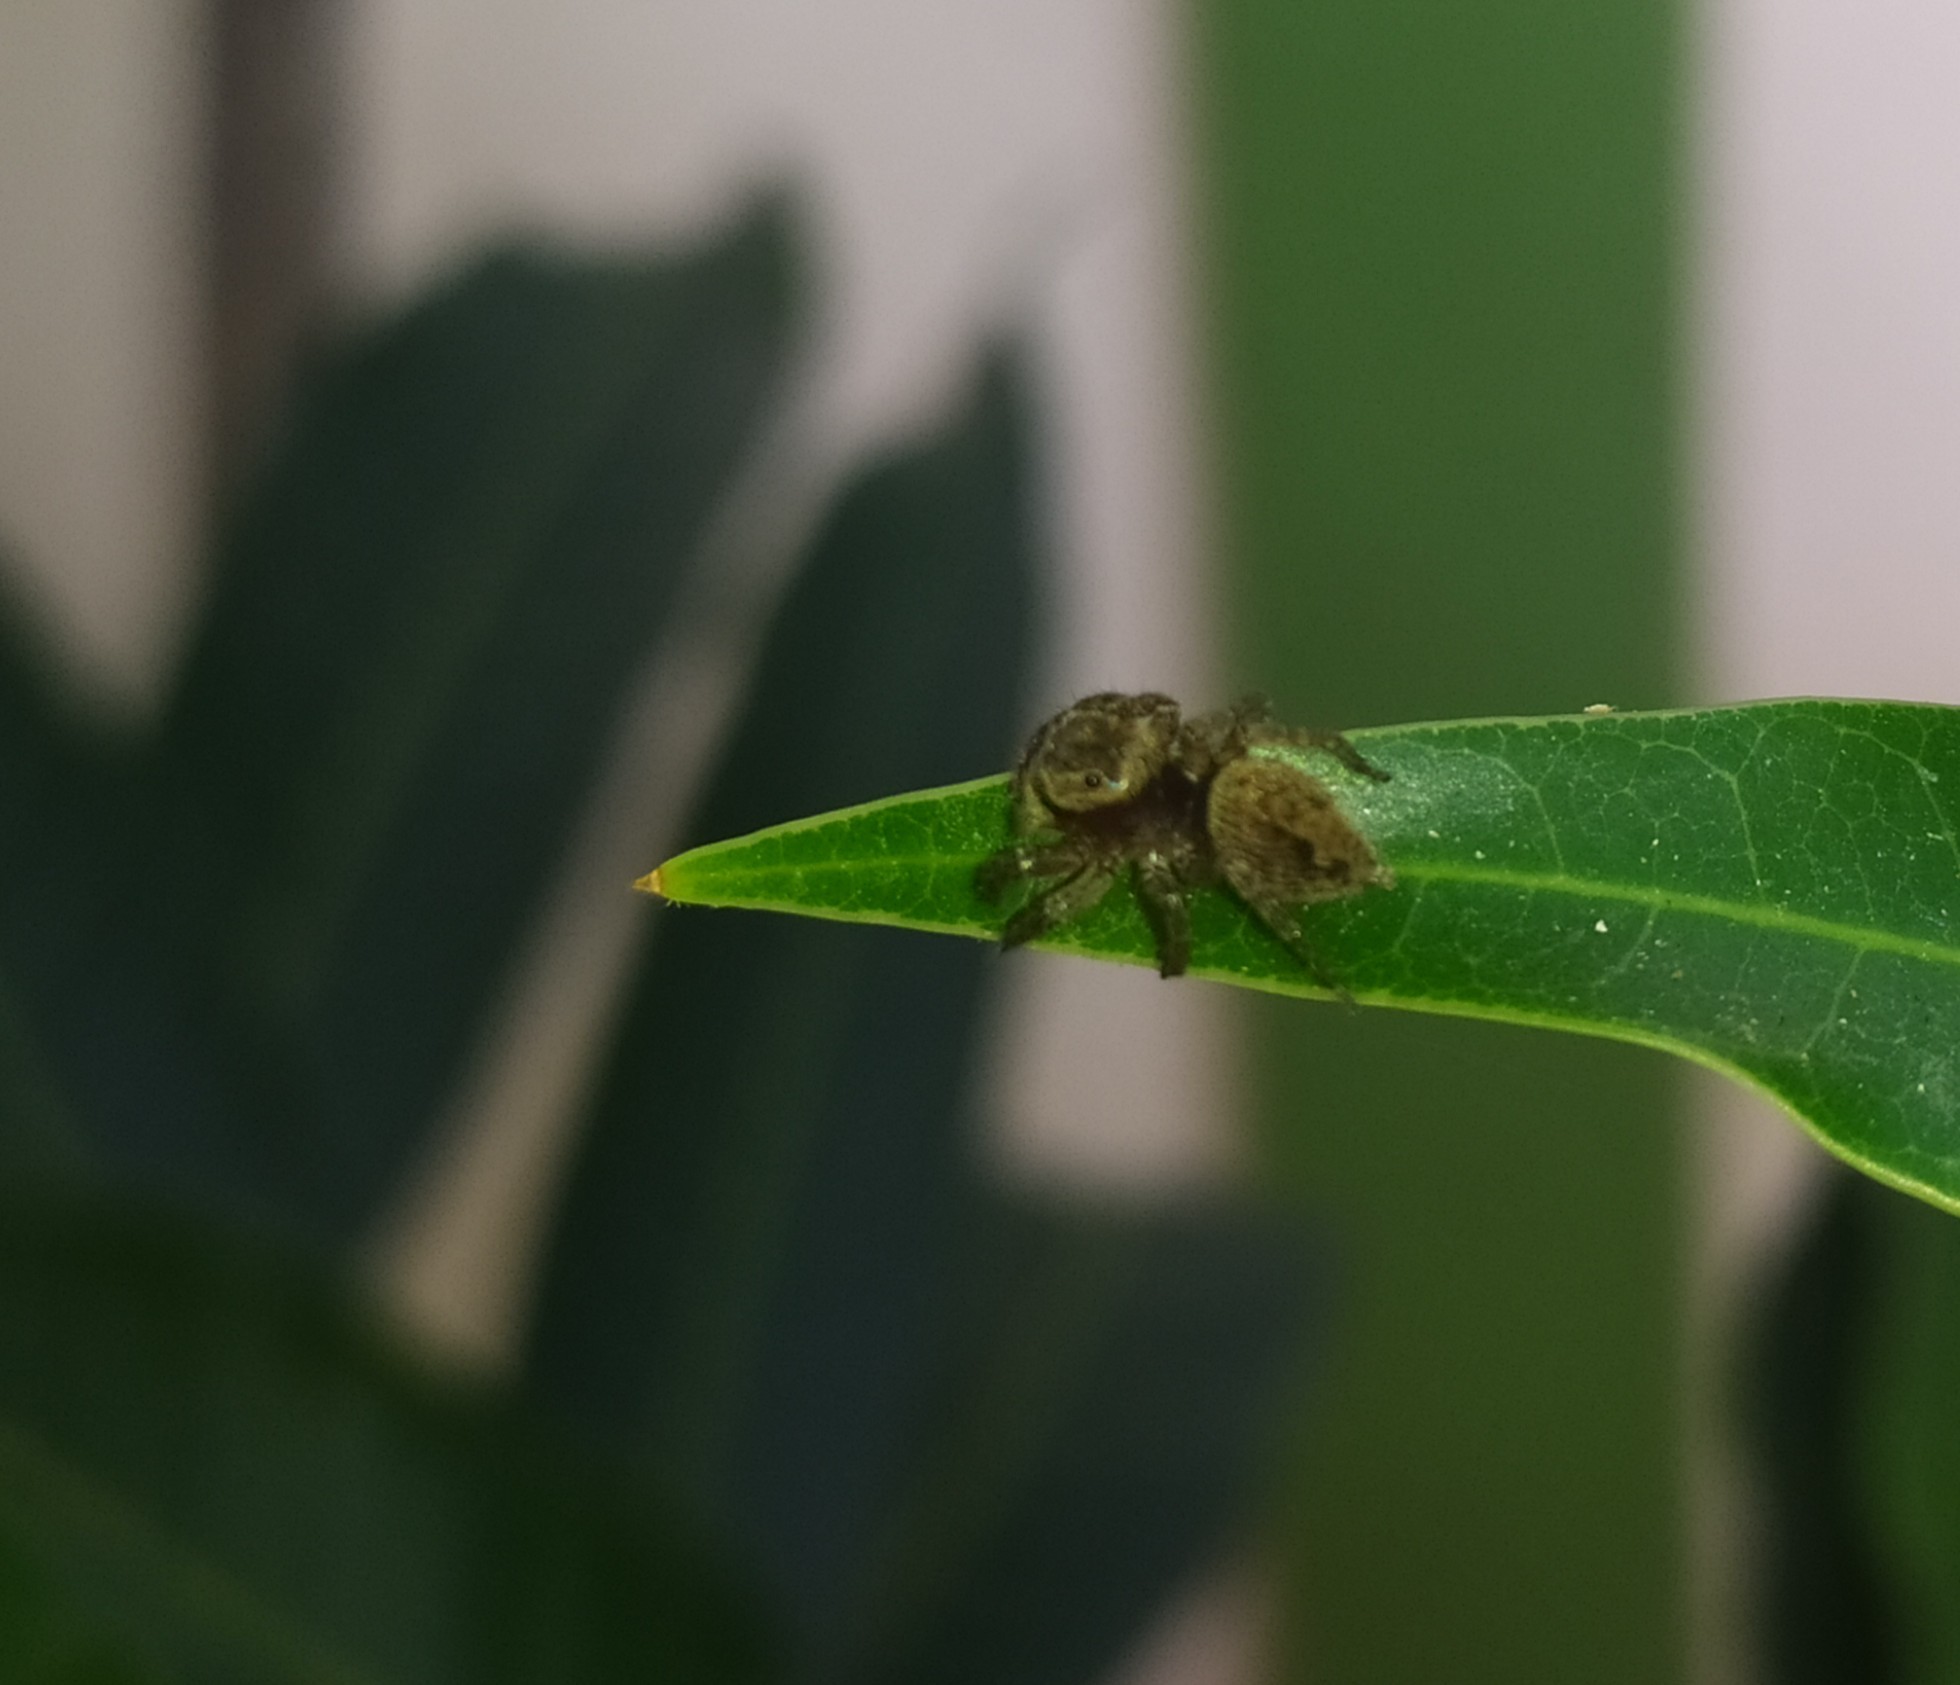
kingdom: Animalia
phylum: Arthropoda
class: Arachnida
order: Araneae
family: Salticidae
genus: Hasarius
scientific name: Hasarius adansoni
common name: Jumping spider
